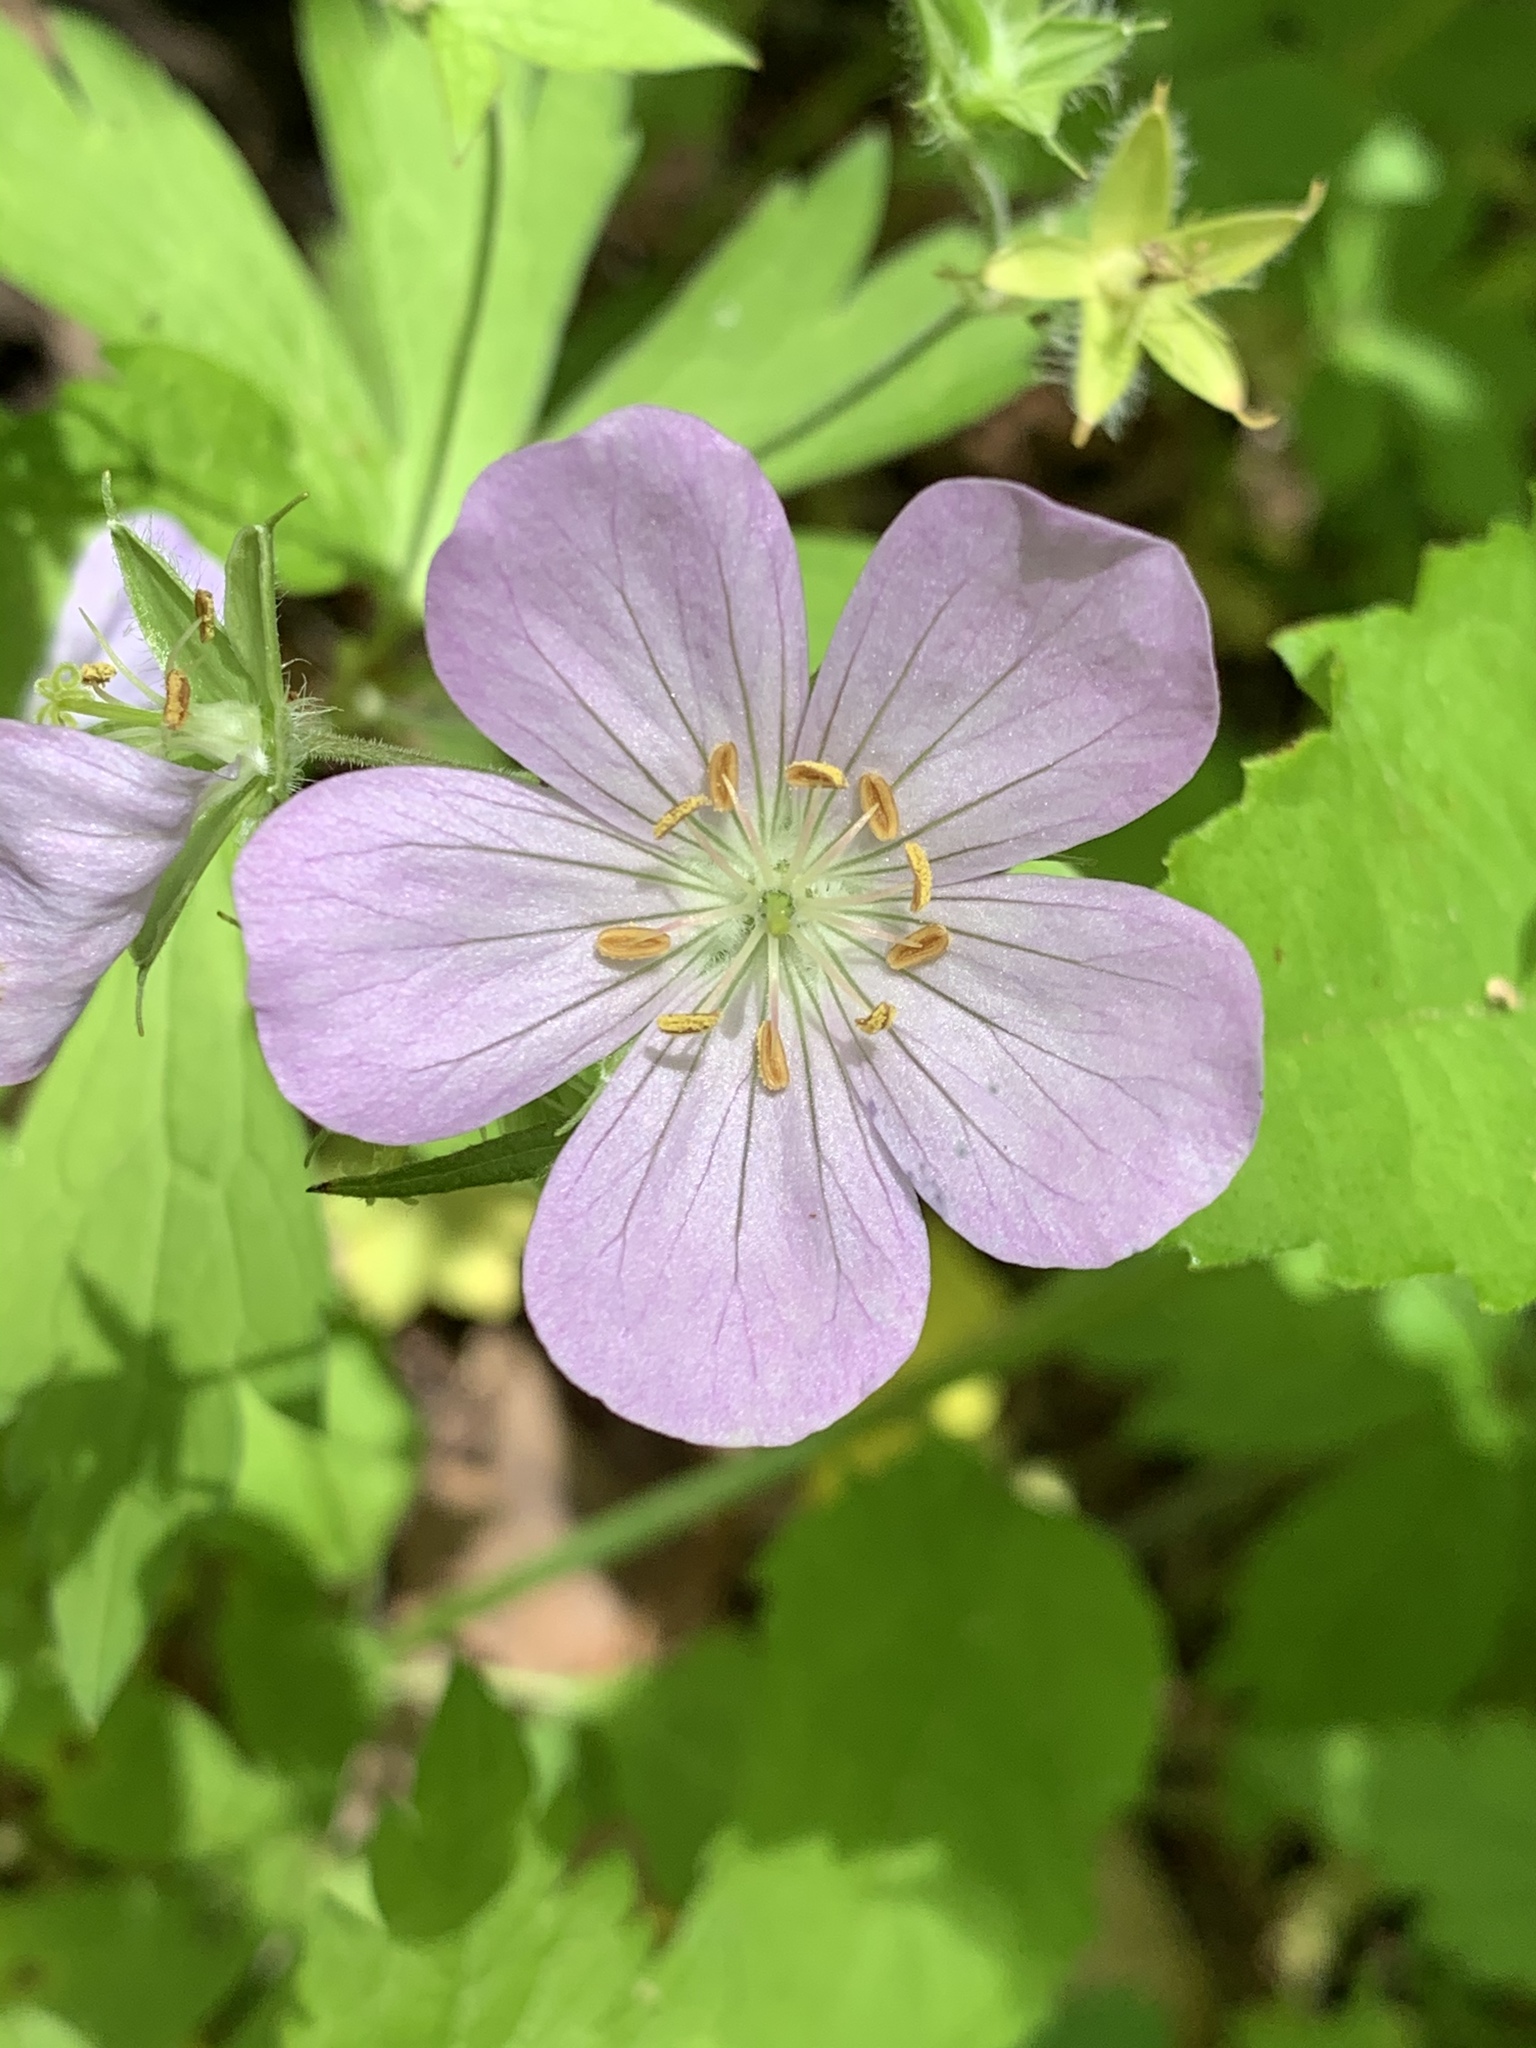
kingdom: Plantae
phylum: Tracheophyta
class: Magnoliopsida
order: Geraniales
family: Geraniaceae
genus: Geranium
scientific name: Geranium maculatum
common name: Spotted geranium
